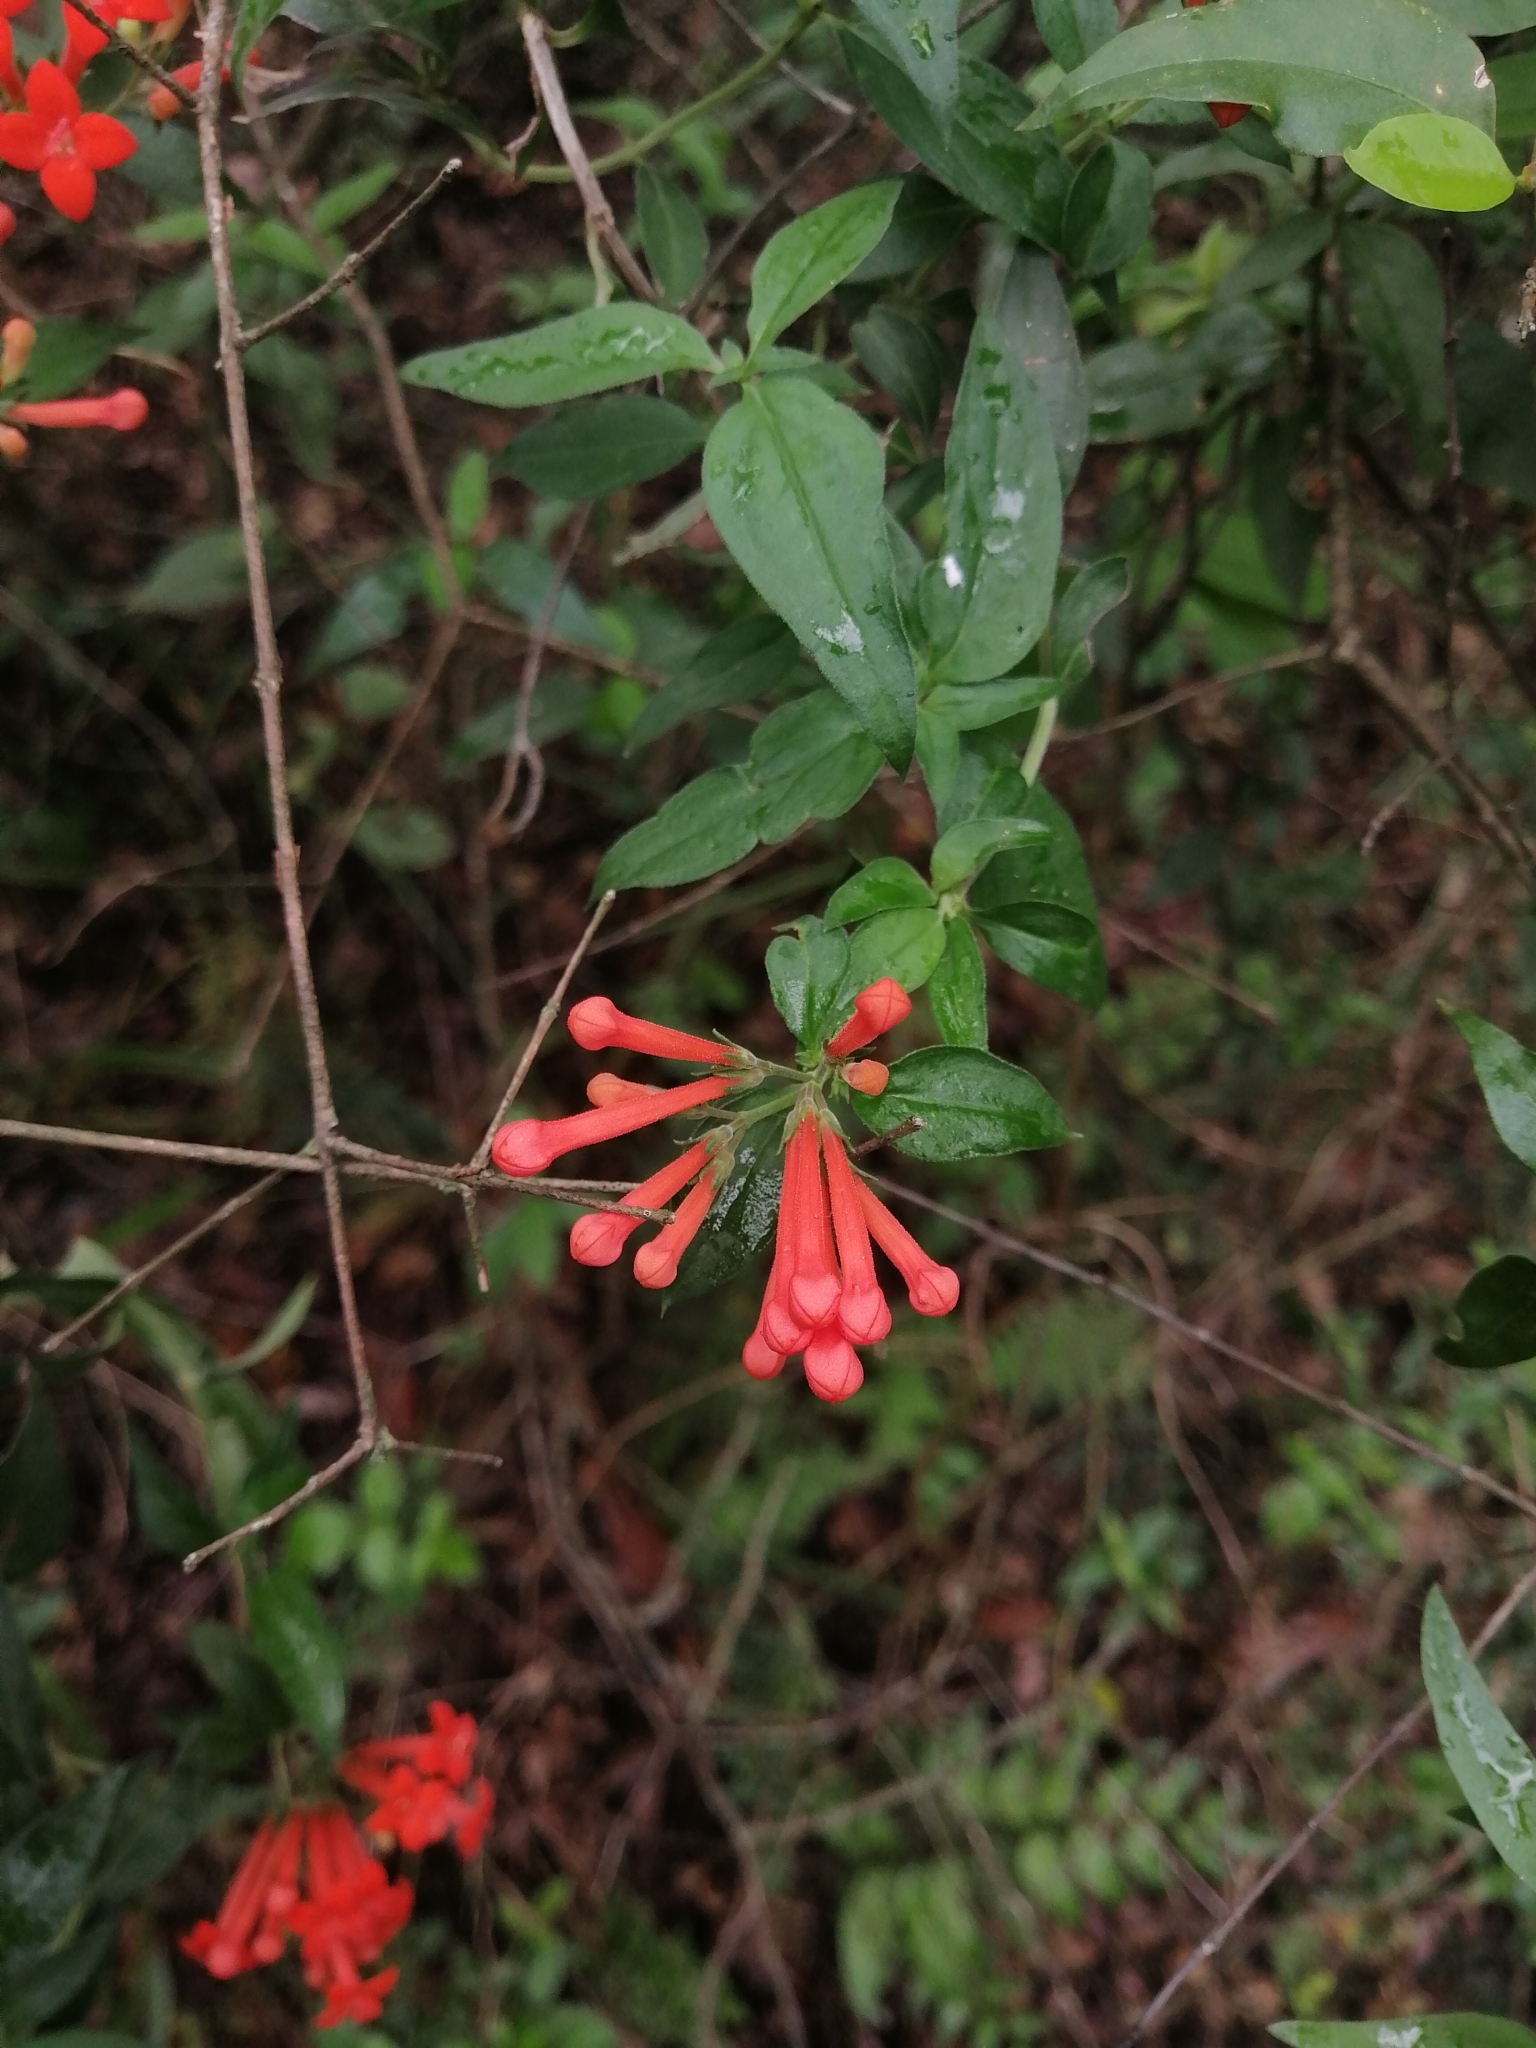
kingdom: Plantae
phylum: Tracheophyta
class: Magnoliopsida
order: Gentianales
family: Rubiaceae
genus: Bouvardia
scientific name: Bouvardia ternifolia
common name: Scarlet bouvardia
